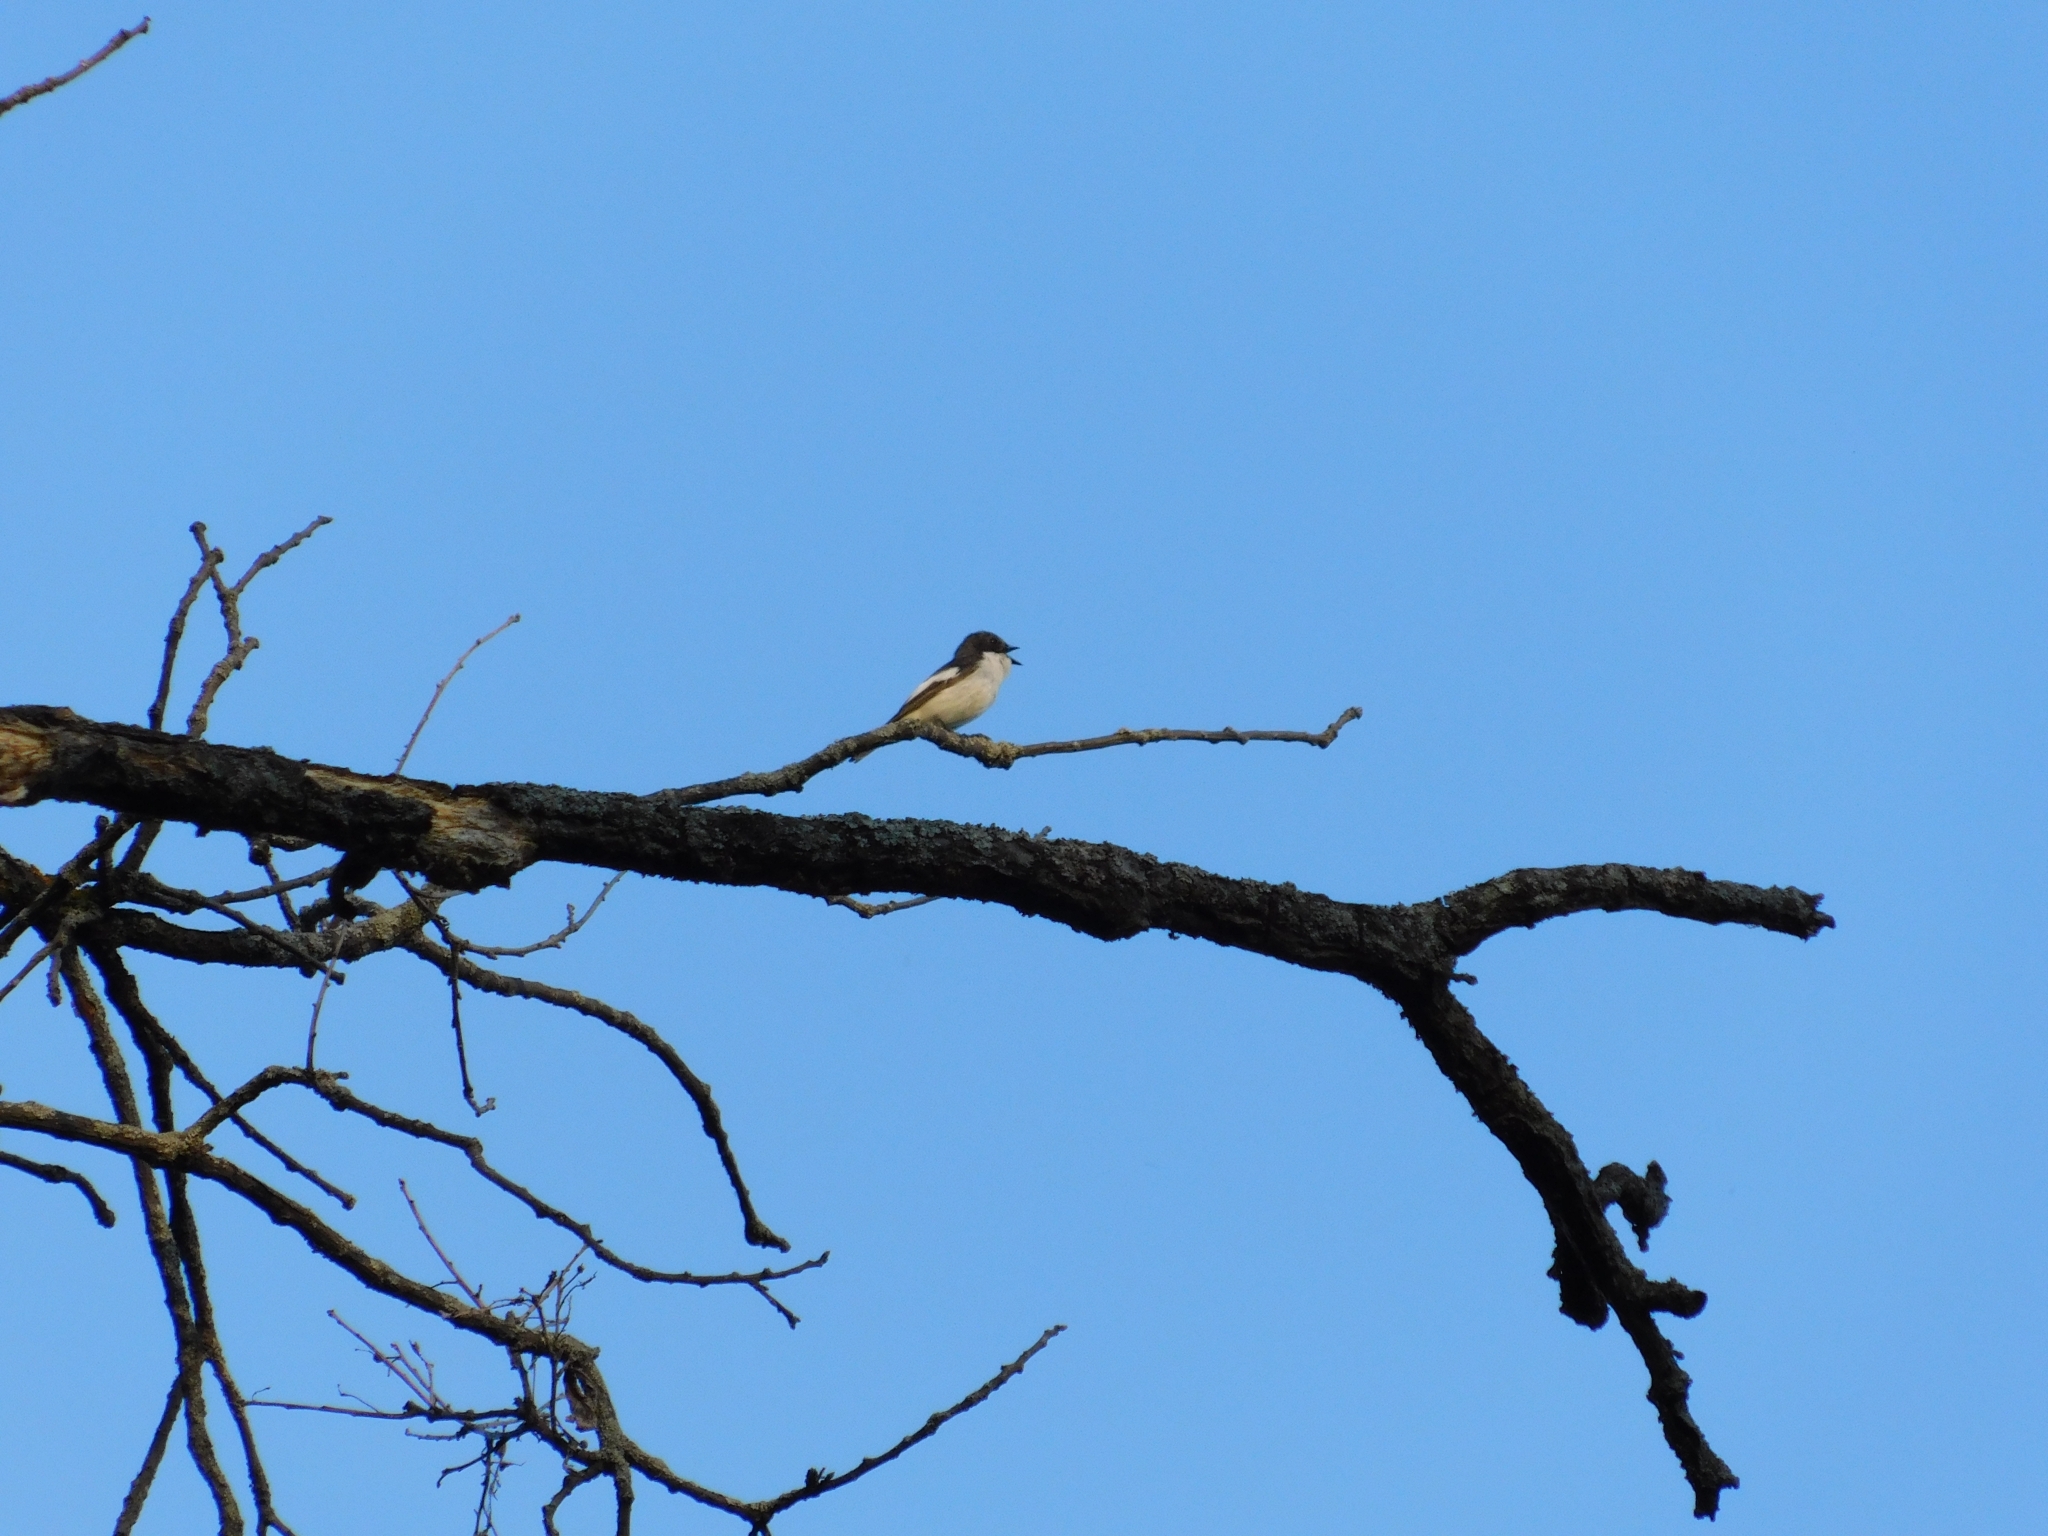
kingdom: Animalia
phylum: Chordata
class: Aves
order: Passeriformes
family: Muscicapidae
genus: Ficedula
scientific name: Ficedula hypoleuca
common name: European pied flycatcher
